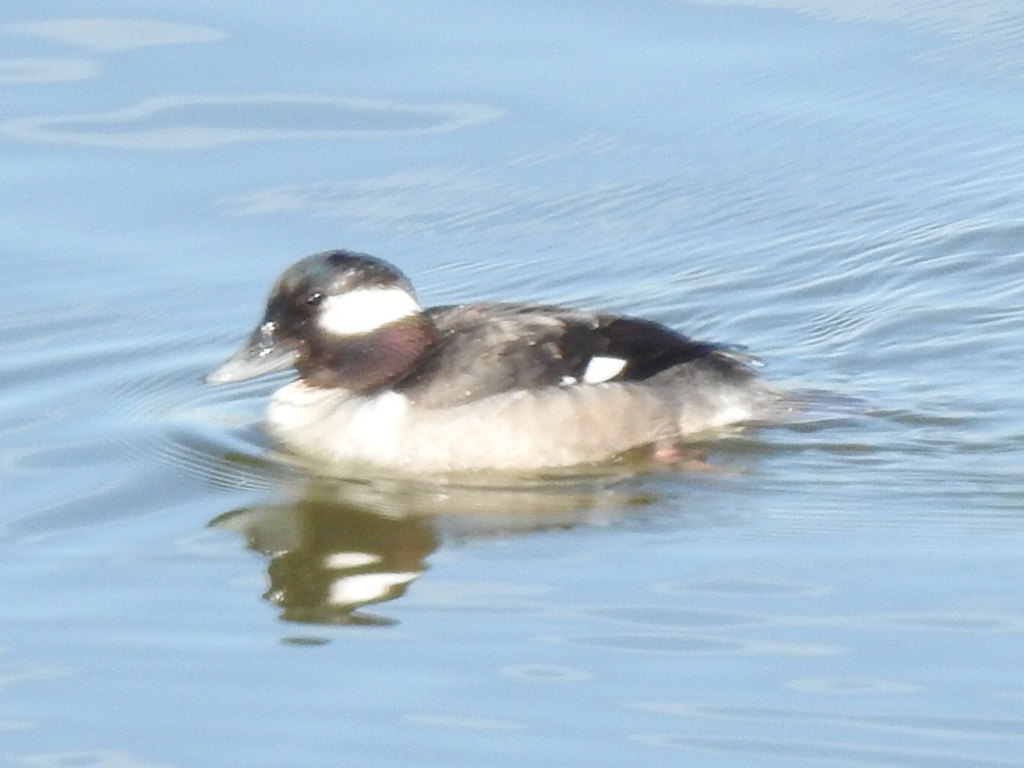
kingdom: Animalia
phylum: Chordata
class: Aves
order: Anseriformes
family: Anatidae
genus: Bucephala
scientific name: Bucephala albeola
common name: Bufflehead
